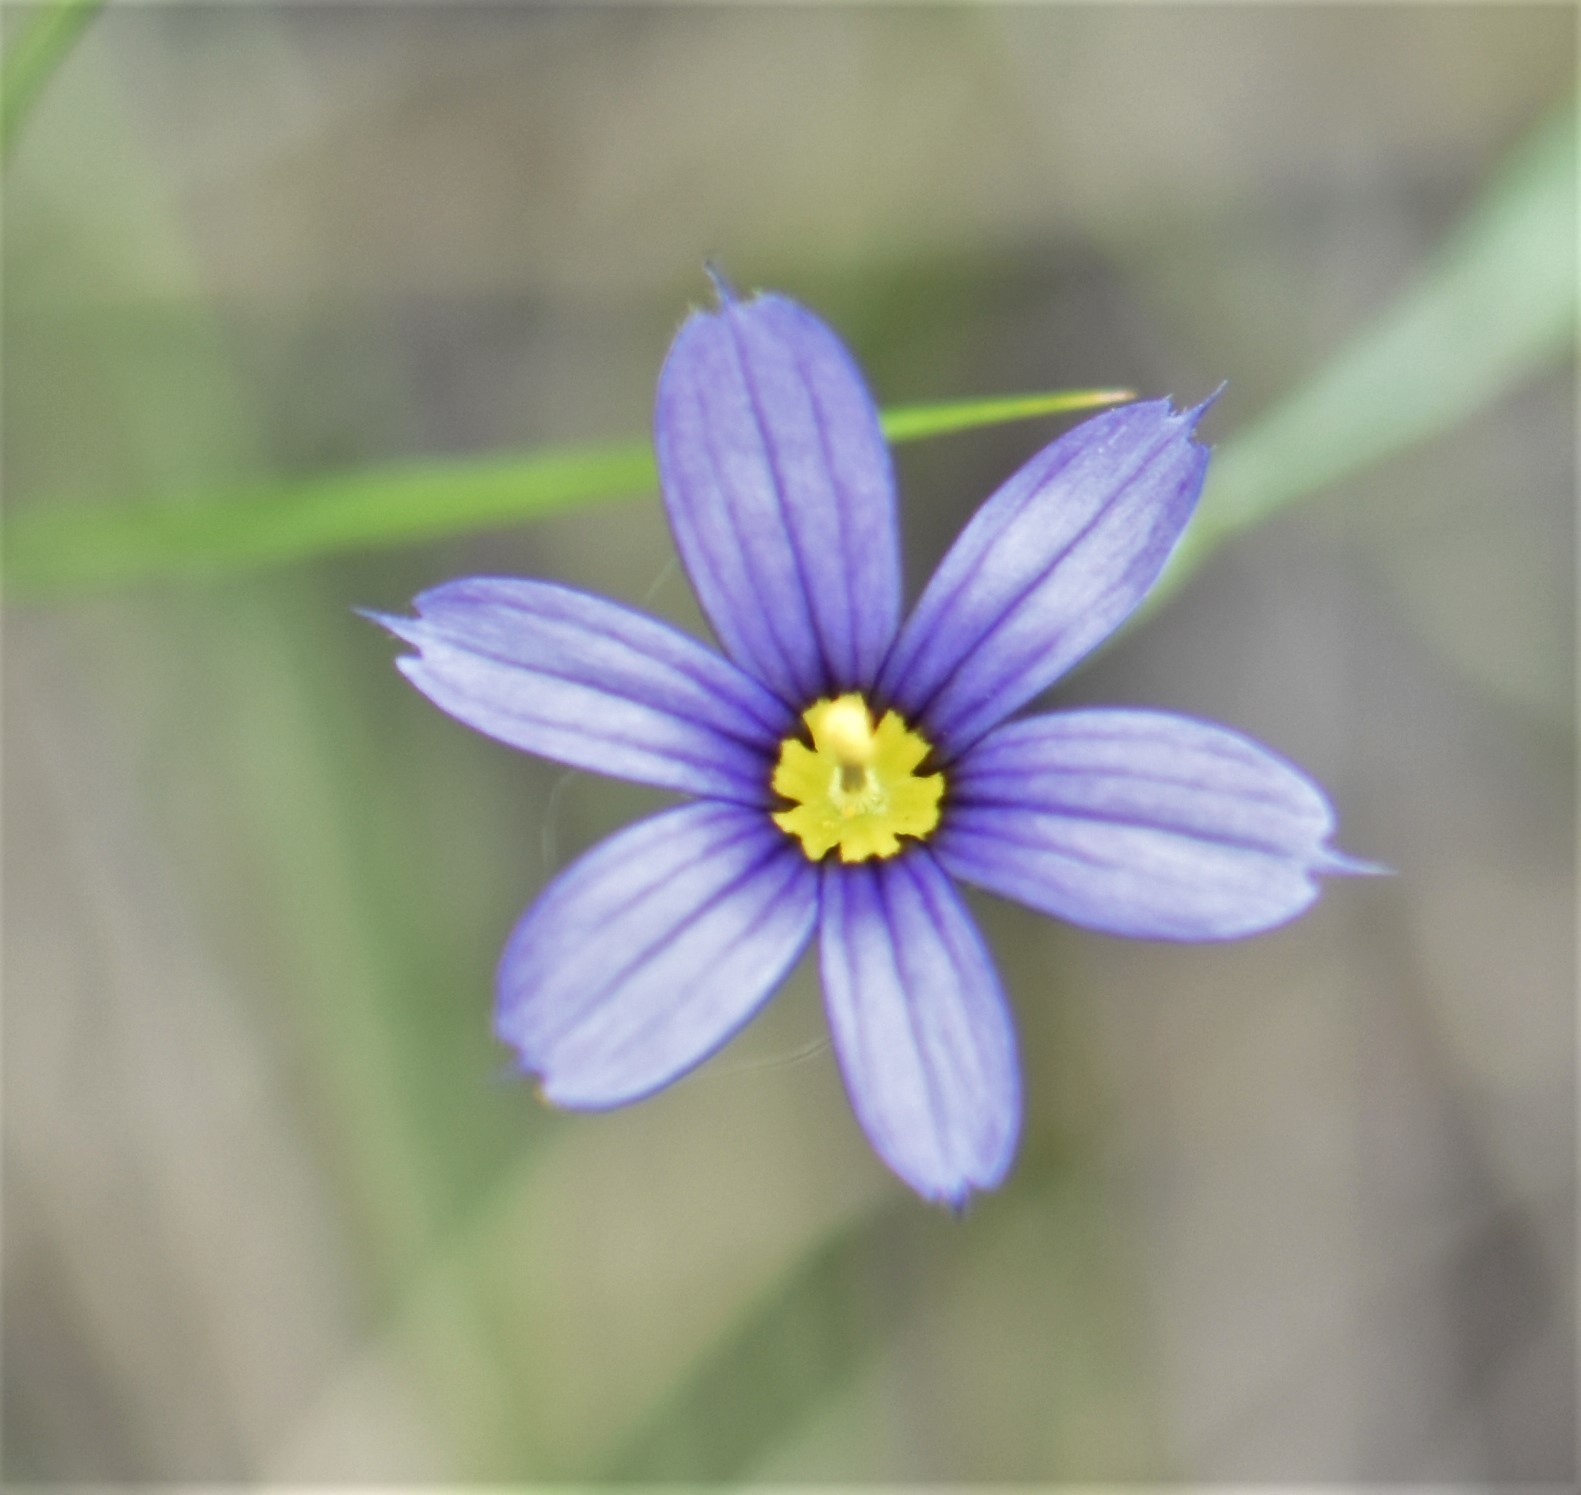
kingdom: Plantae
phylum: Tracheophyta
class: Liliopsida
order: Asparagales
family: Iridaceae
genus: Sisyrinchium
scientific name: Sisyrinchium montanum
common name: American blue-eyed-grass
